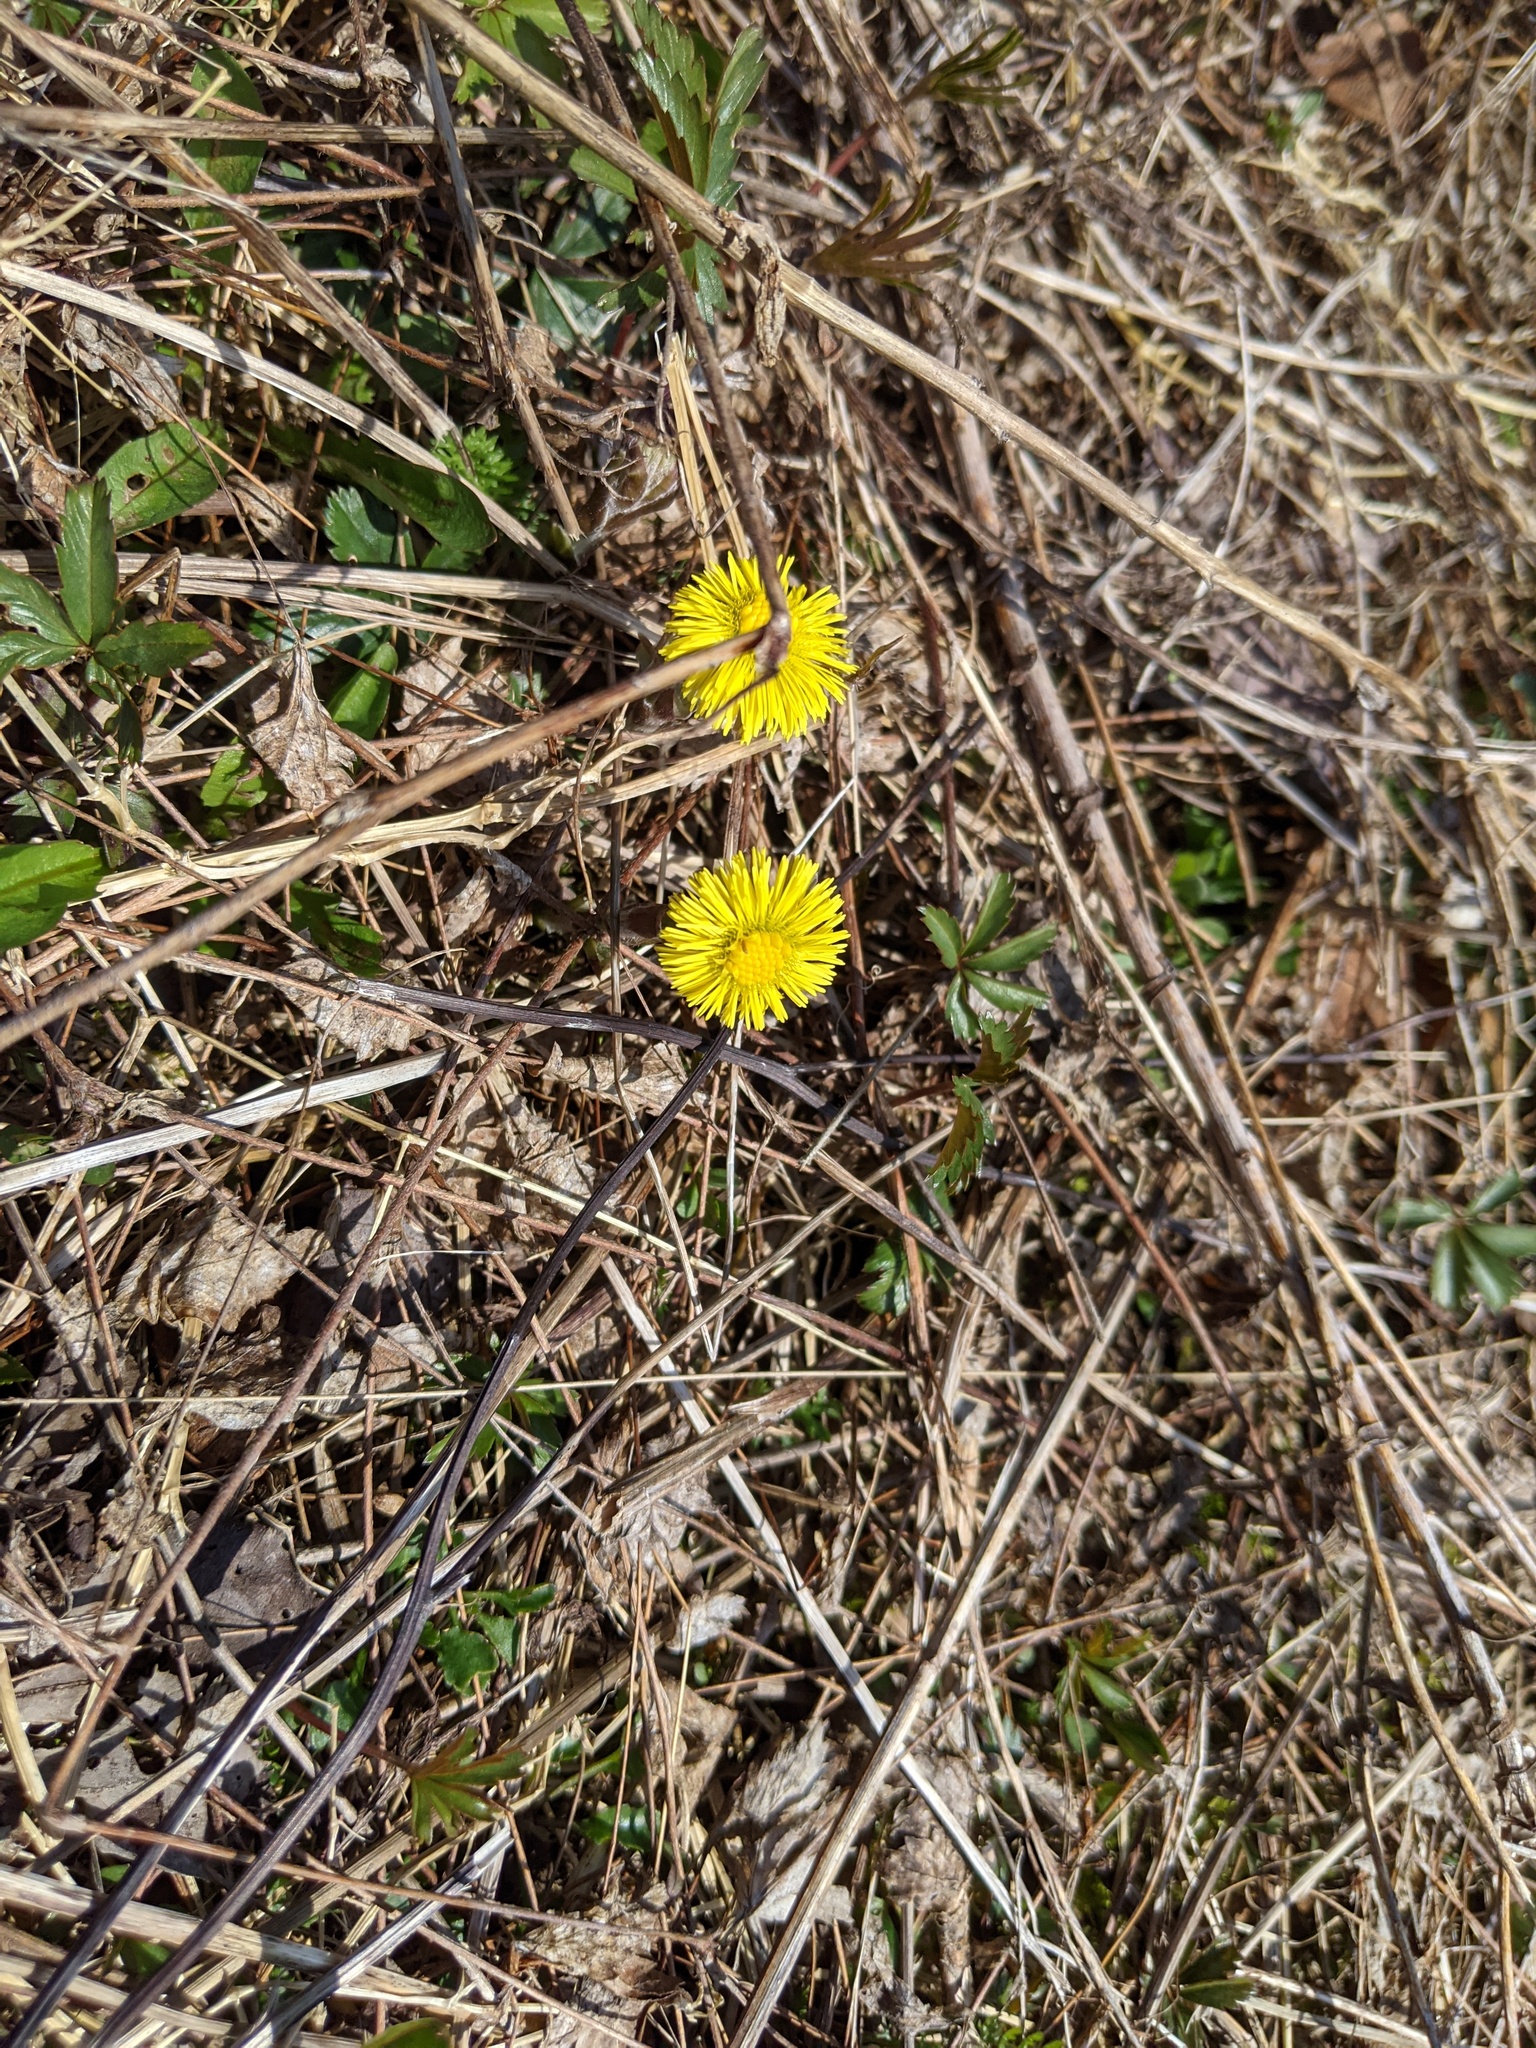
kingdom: Plantae
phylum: Tracheophyta
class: Magnoliopsida
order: Asterales
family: Asteraceae
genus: Tussilago
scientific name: Tussilago farfara
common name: Coltsfoot
